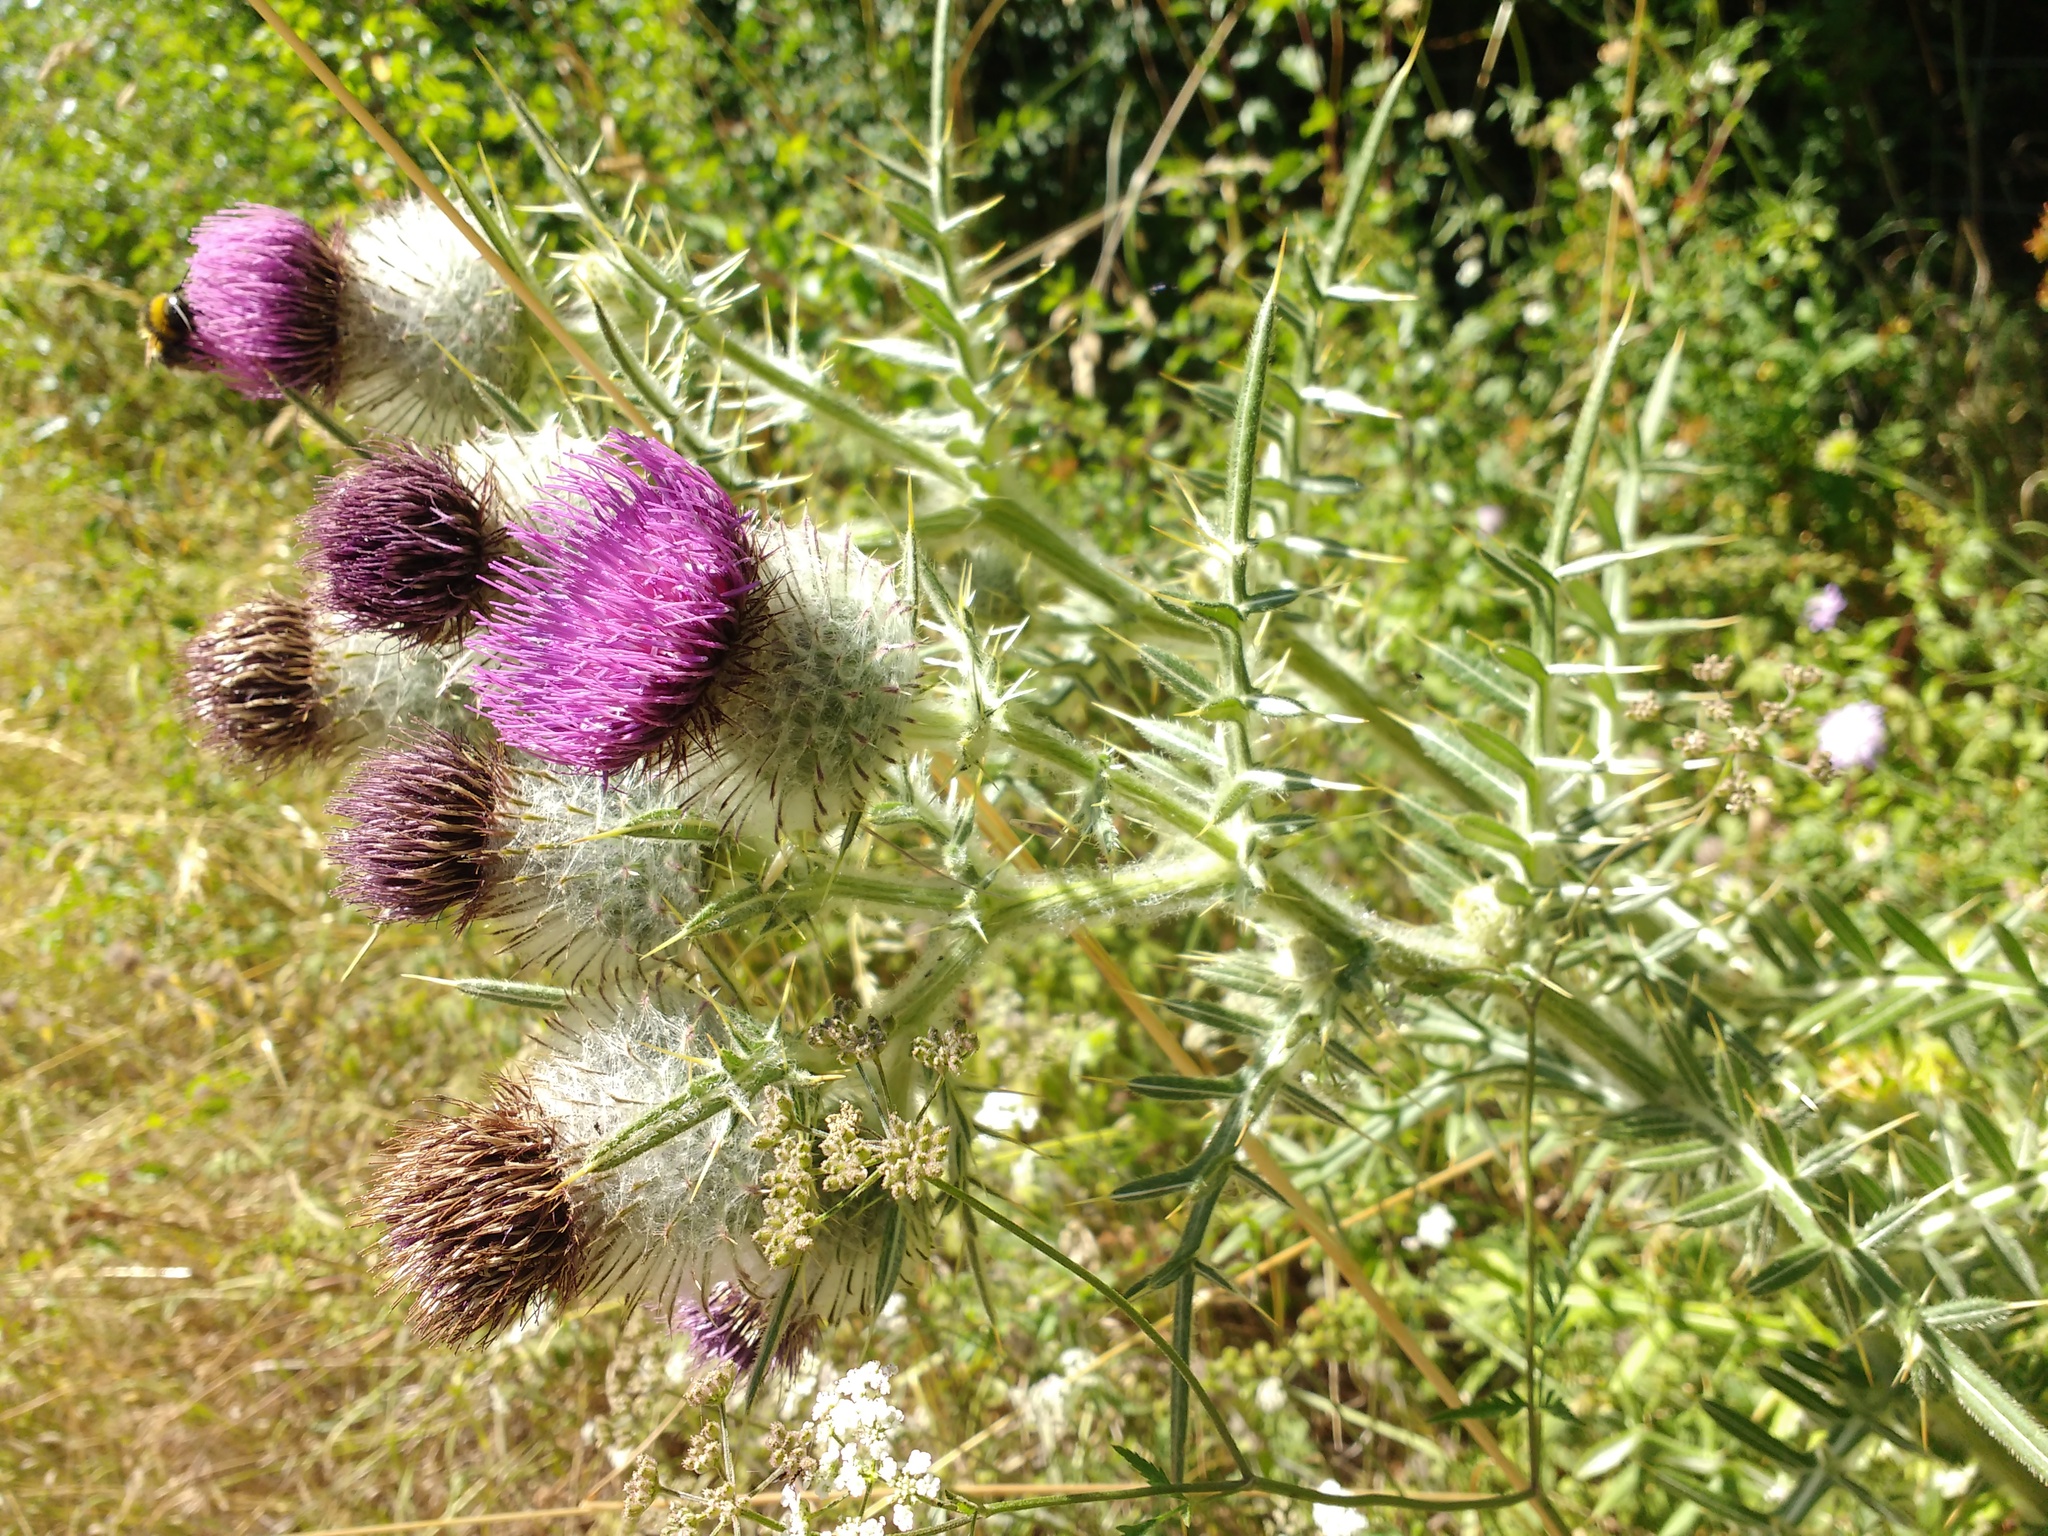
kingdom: Plantae
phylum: Tracheophyta
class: Magnoliopsida
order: Asterales
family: Asteraceae
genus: Lophiolepis
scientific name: Lophiolepis eriophora
